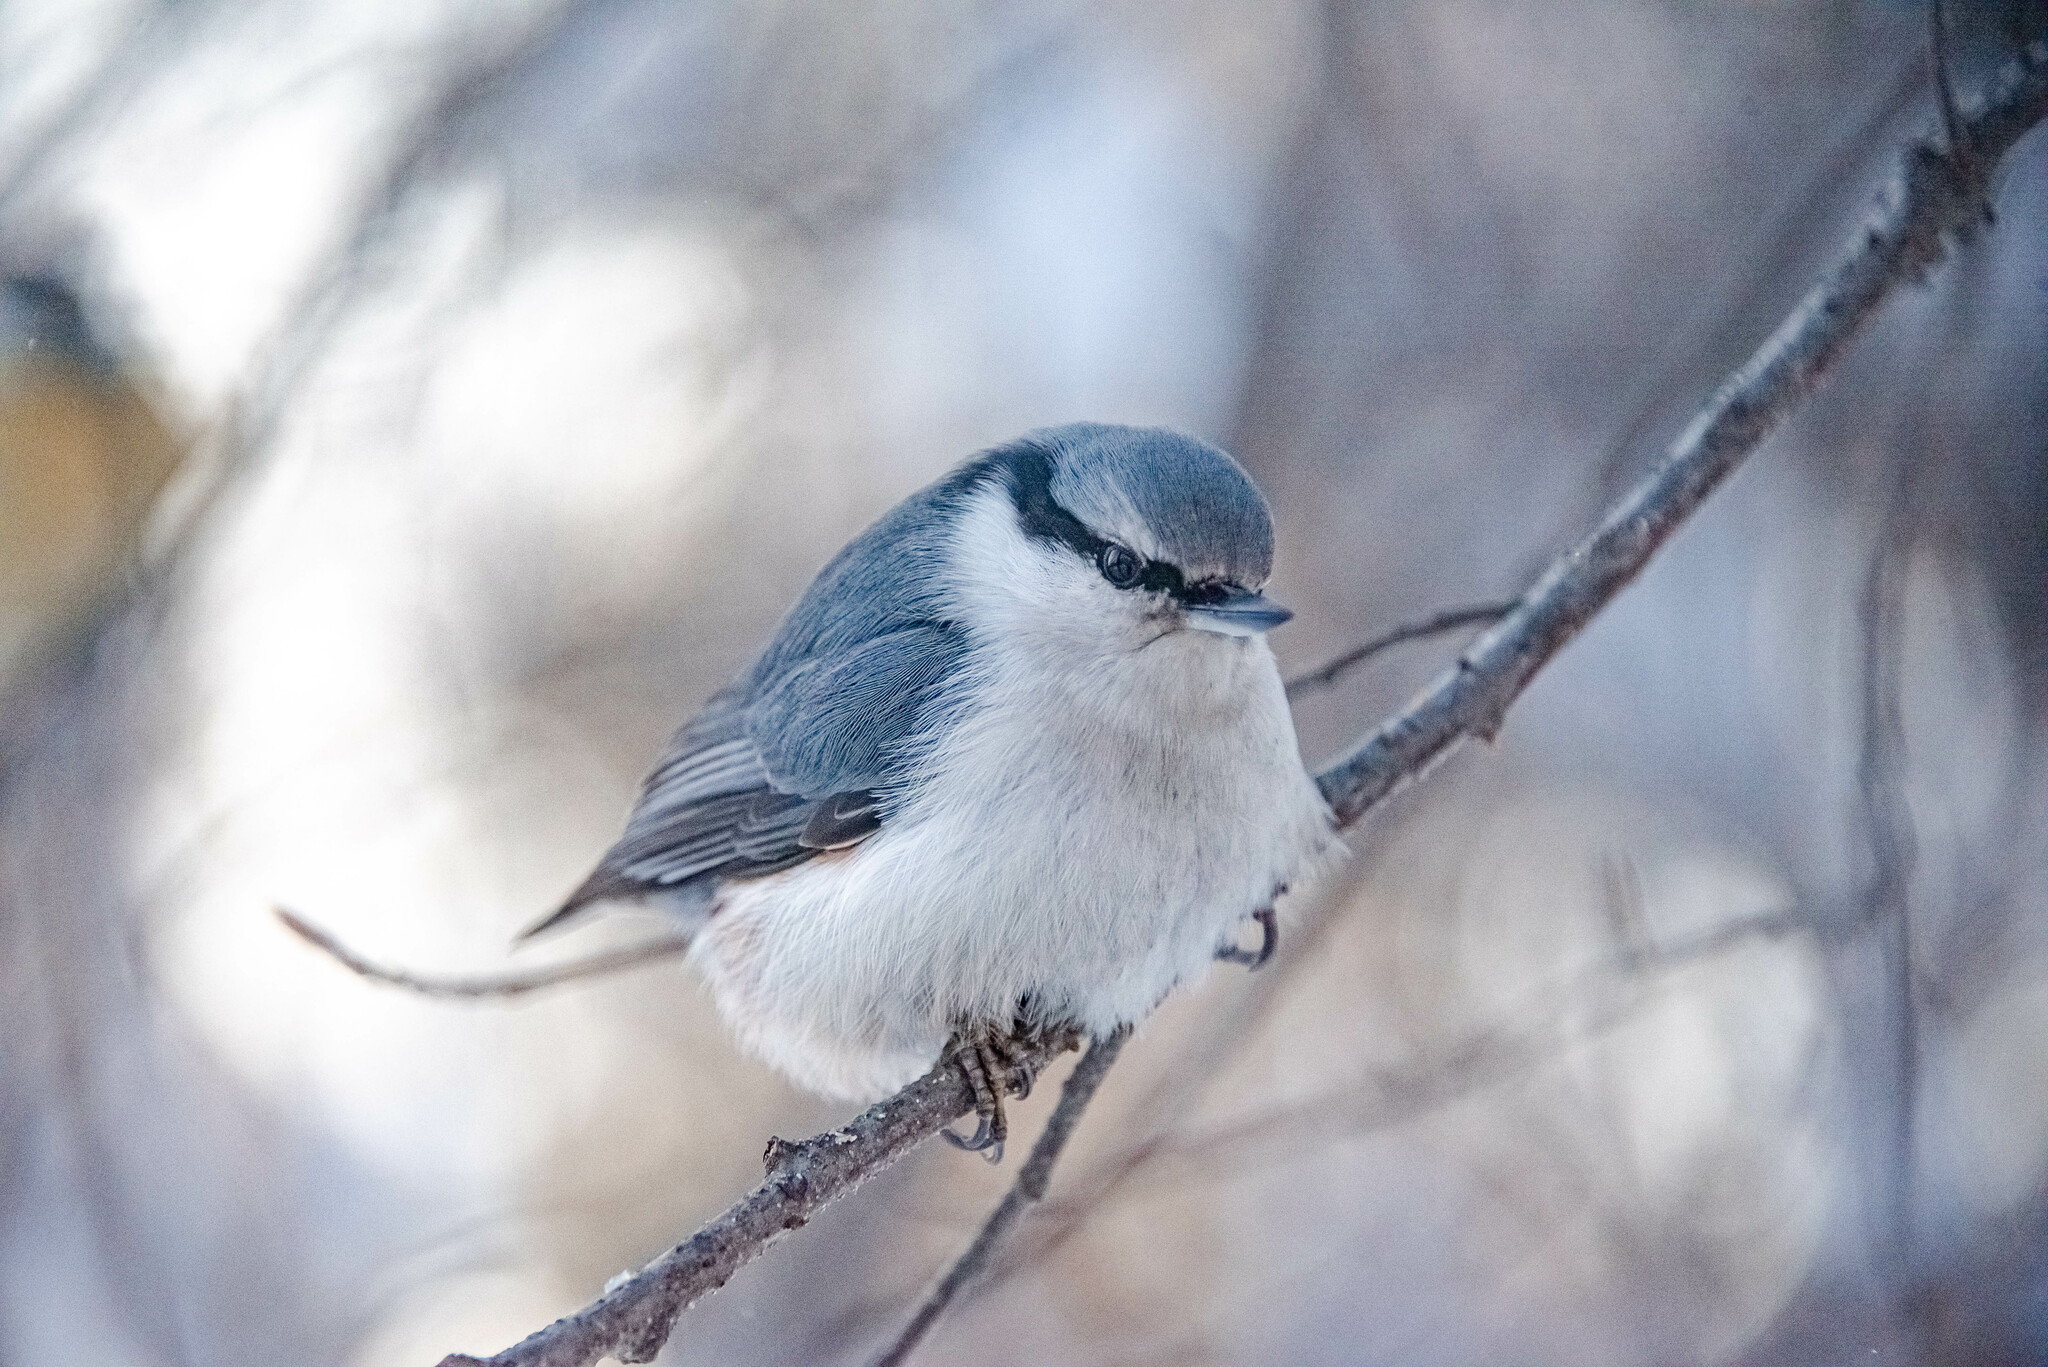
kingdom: Animalia
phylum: Chordata
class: Aves
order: Passeriformes
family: Sittidae
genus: Sitta
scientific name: Sitta europaea
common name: Eurasian nuthatch
